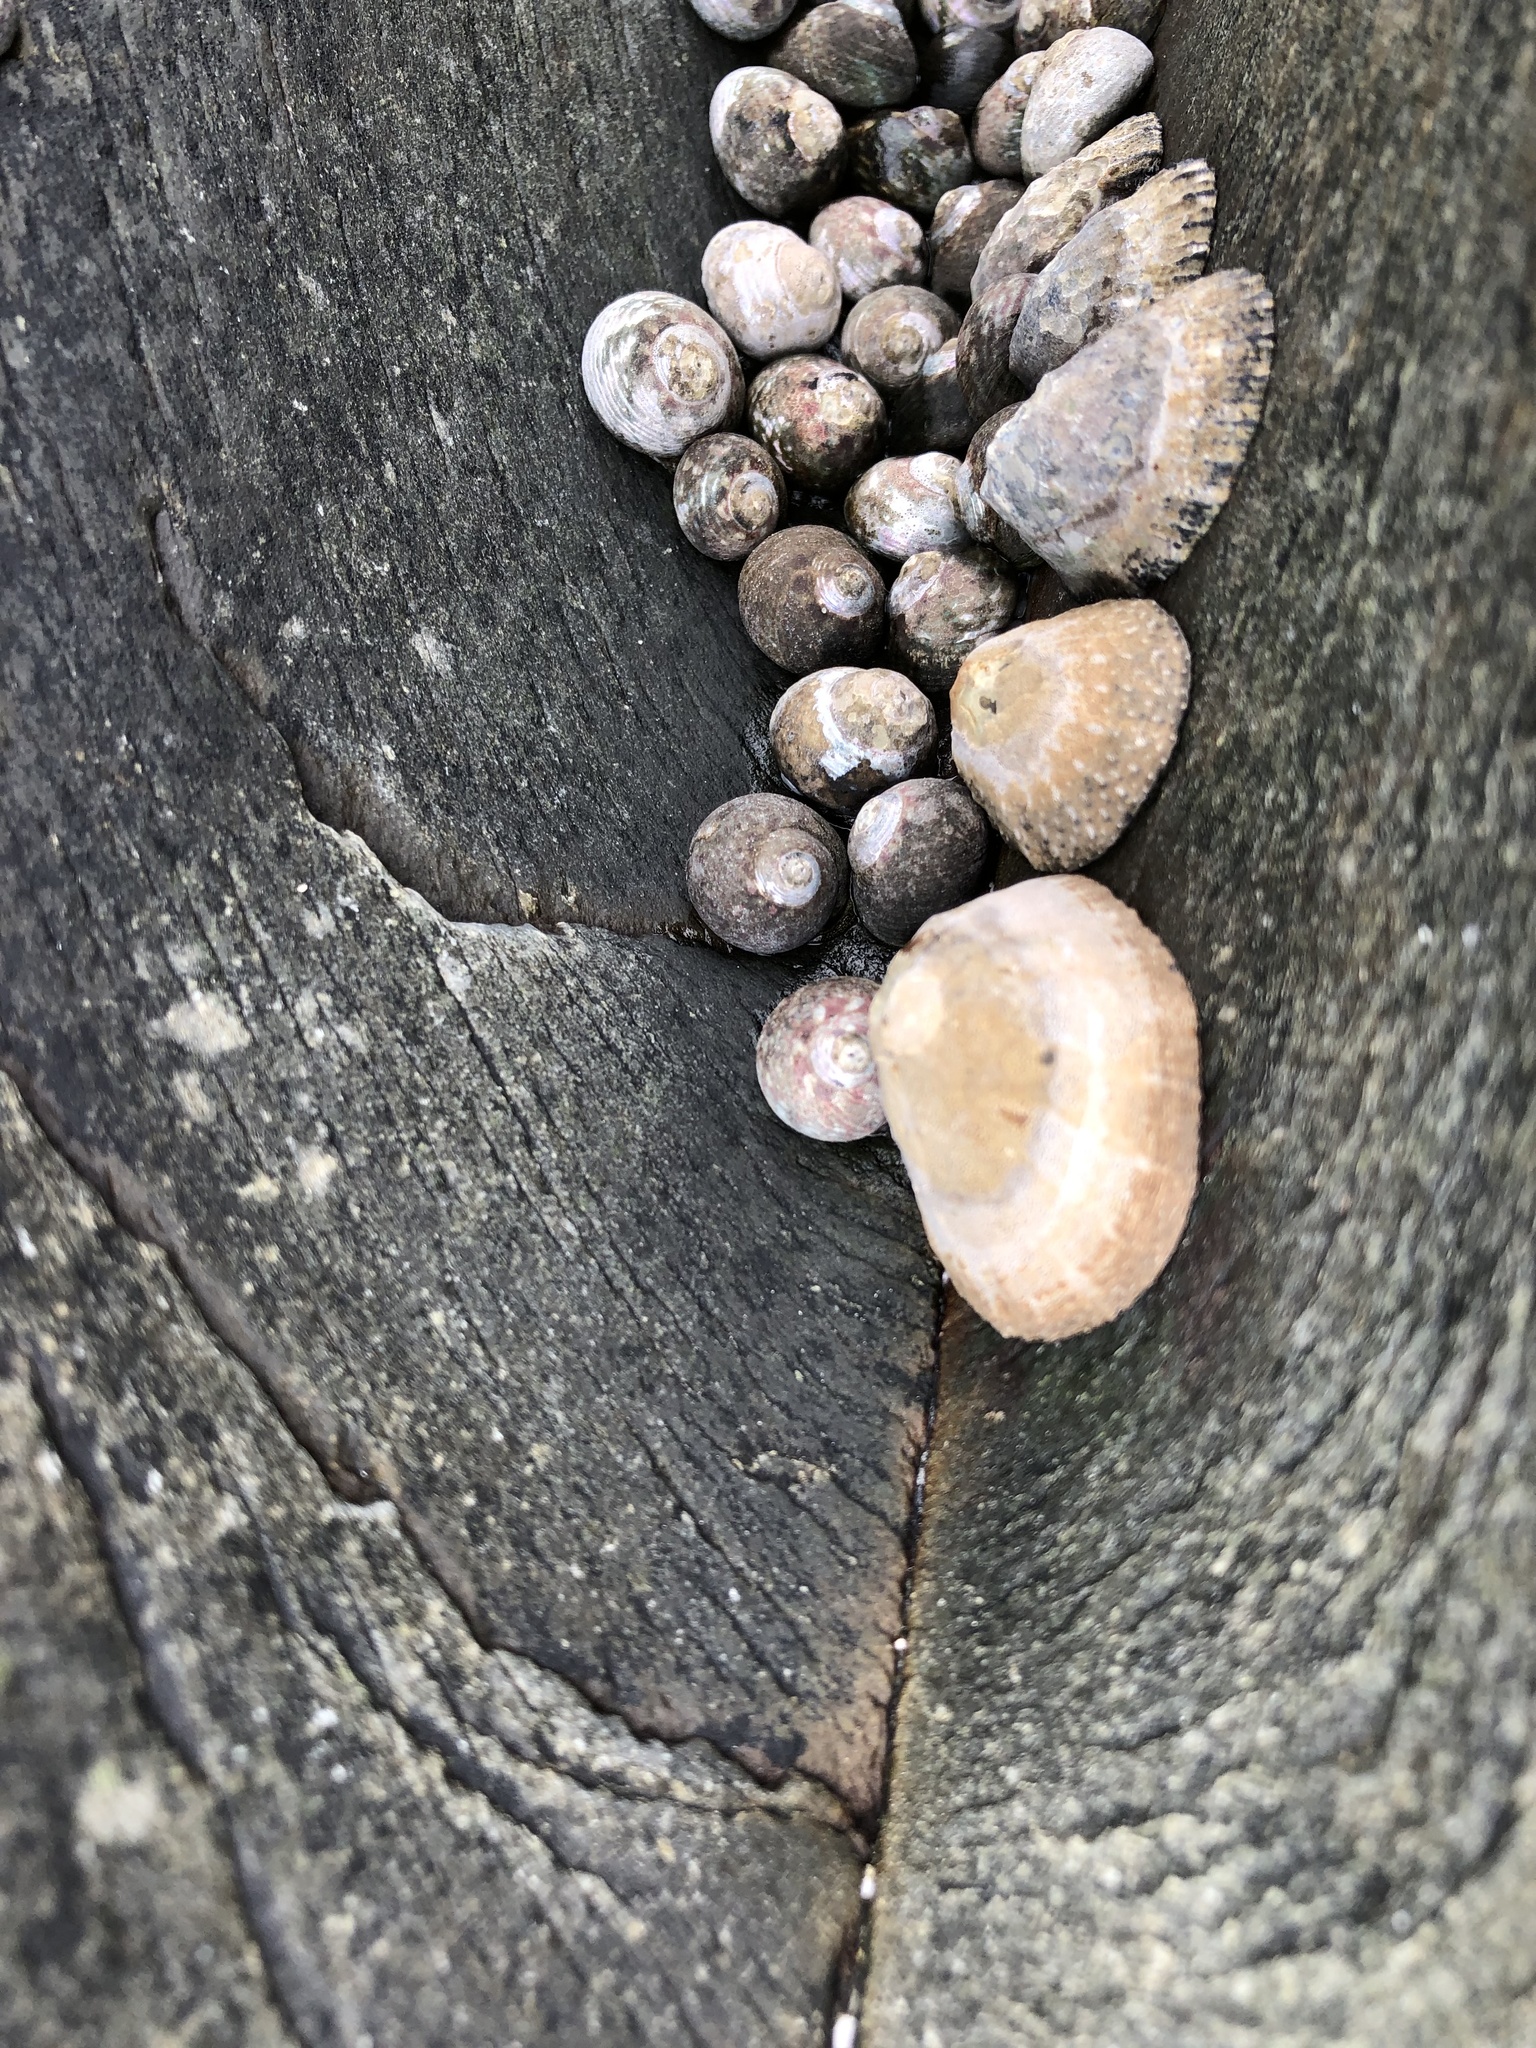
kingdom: Animalia
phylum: Mollusca
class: Gastropoda
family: Patellidae
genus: Scutellastra
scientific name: Scutellastra granularis
